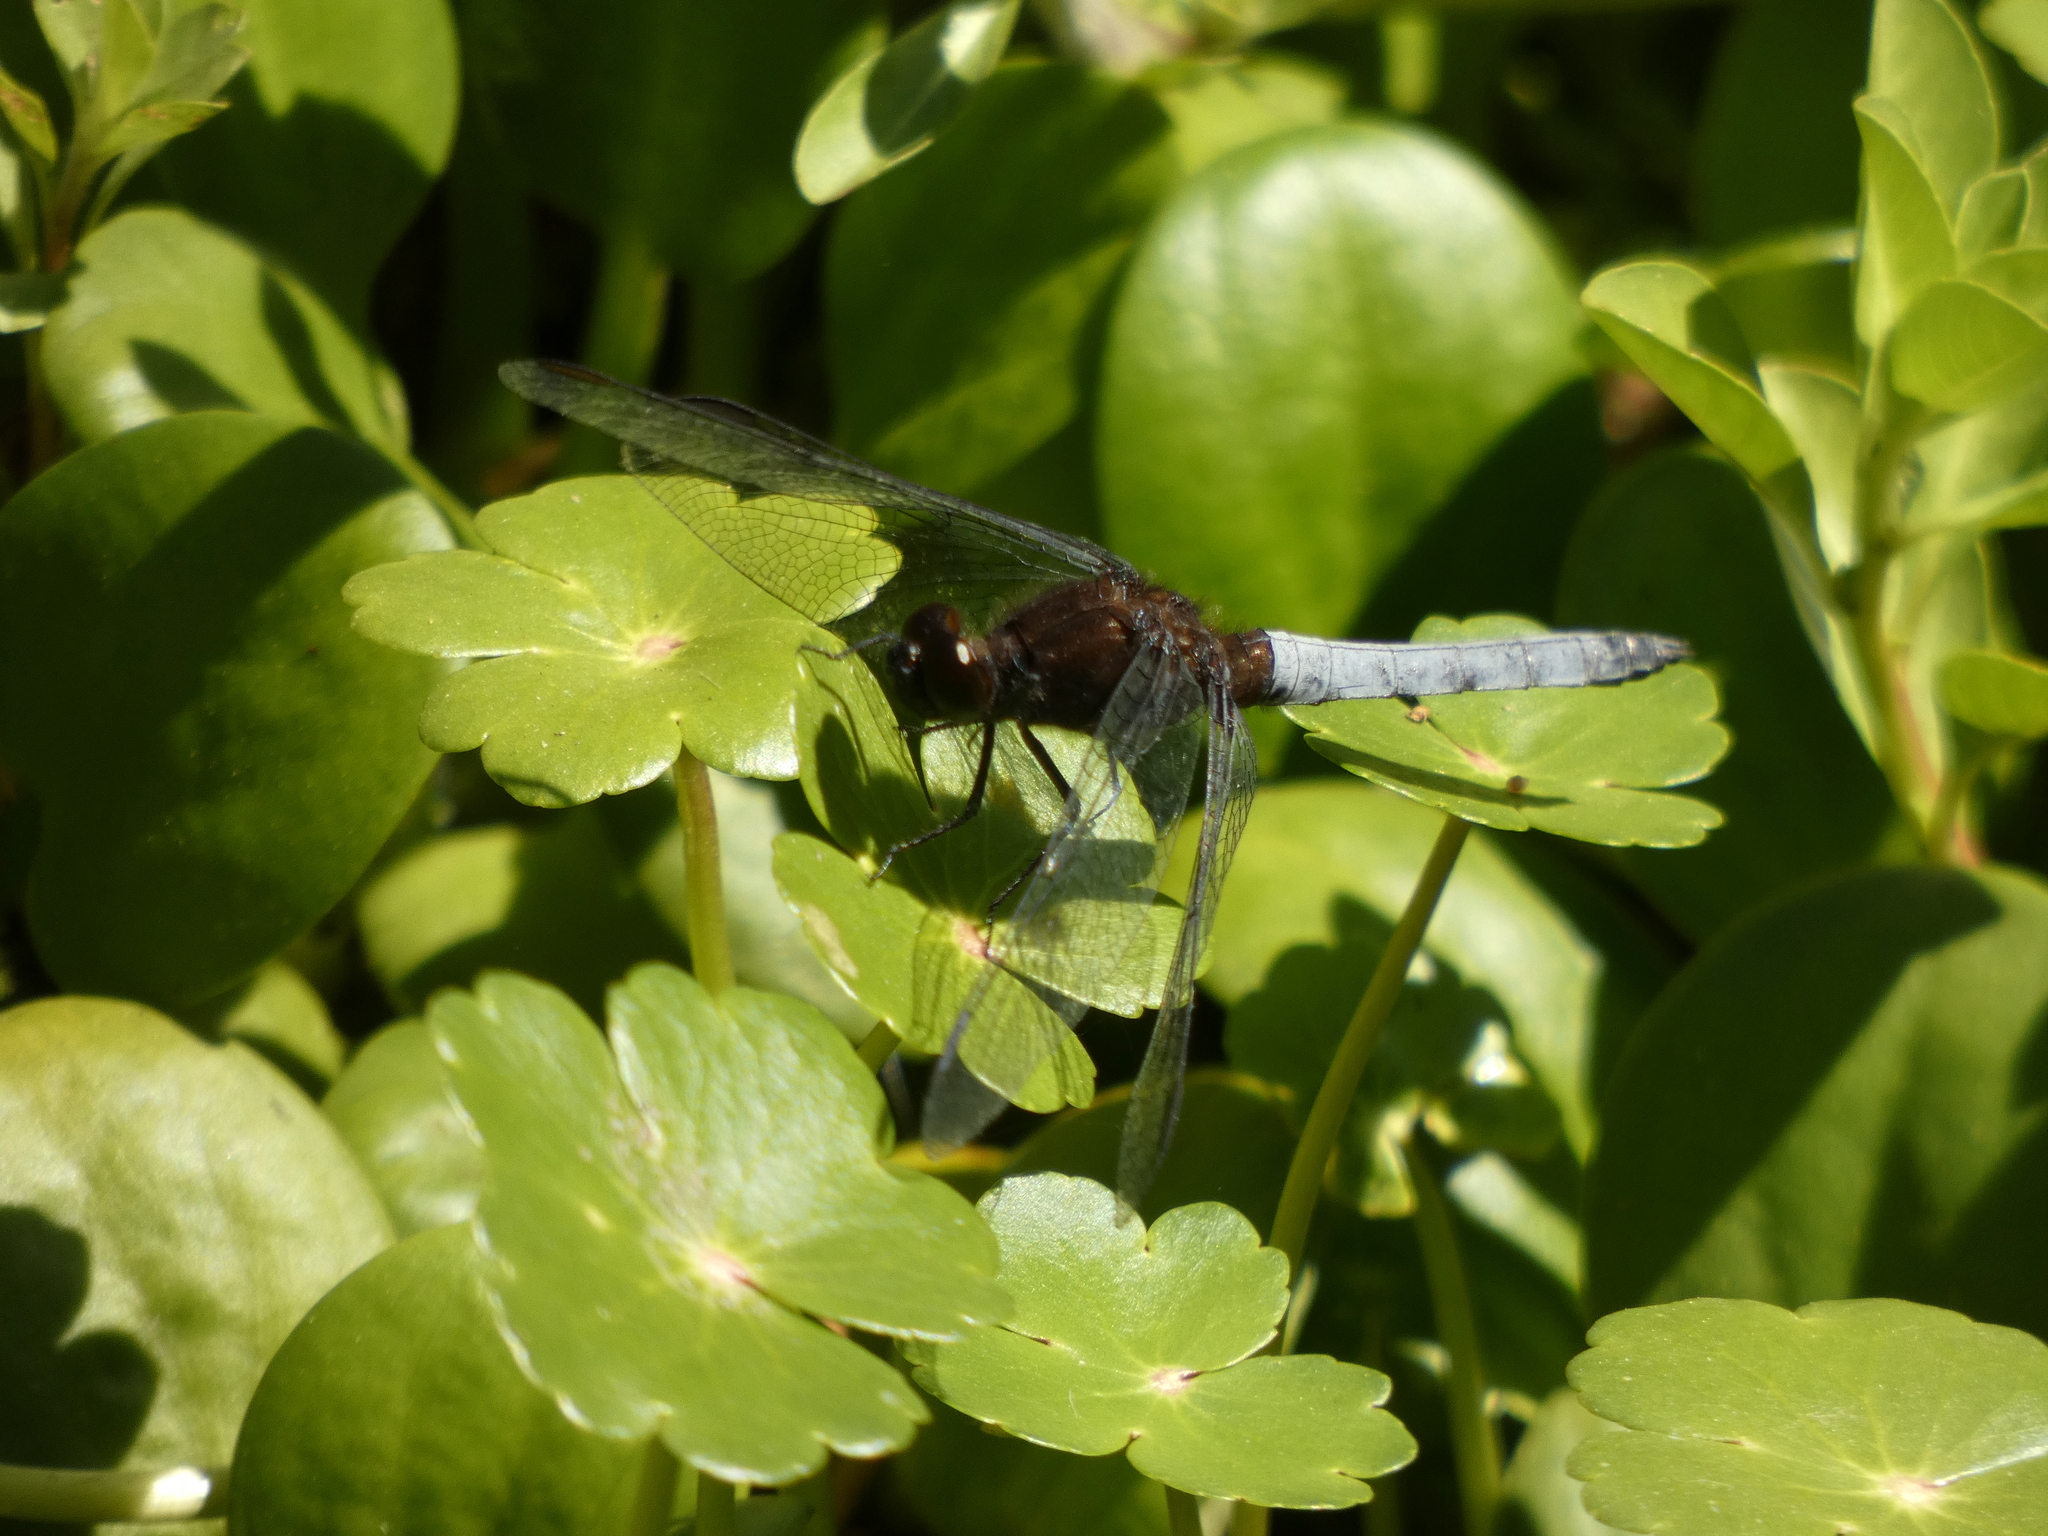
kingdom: Animalia
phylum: Arthropoda
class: Insecta
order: Odonata
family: Libellulidae
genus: Erythrodiplax
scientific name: Erythrodiplax connata
